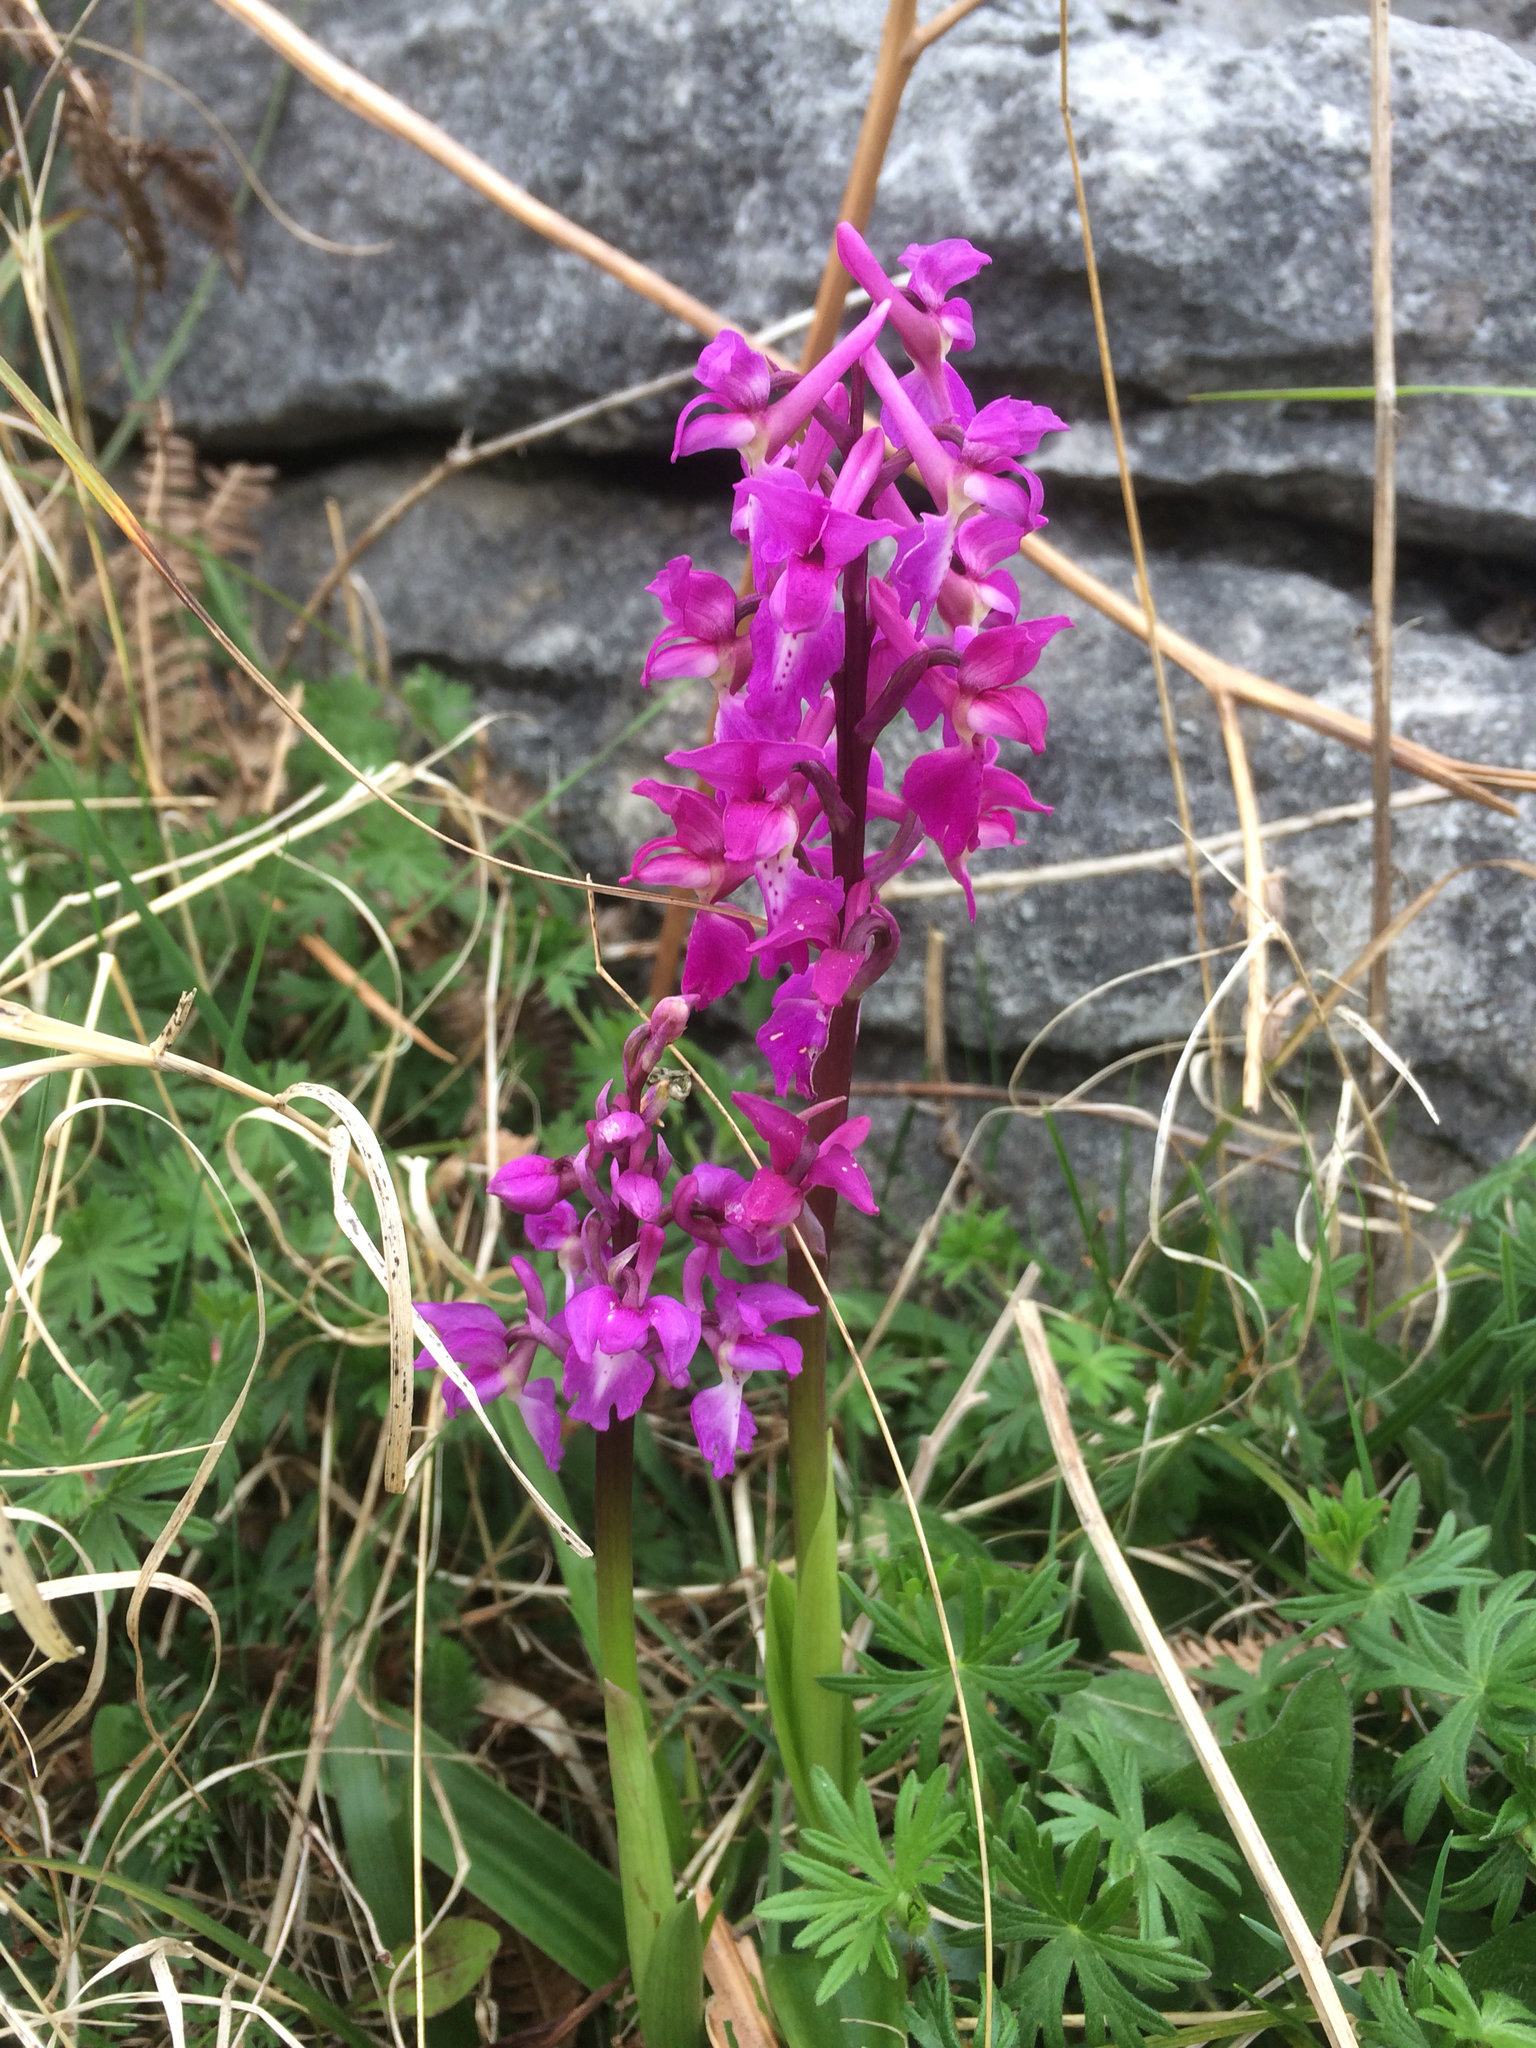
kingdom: Plantae
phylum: Tracheophyta
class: Liliopsida
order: Asparagales
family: Orchidaceae
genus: Orchis
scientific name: Orchis mascula
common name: Early-purple orchid
